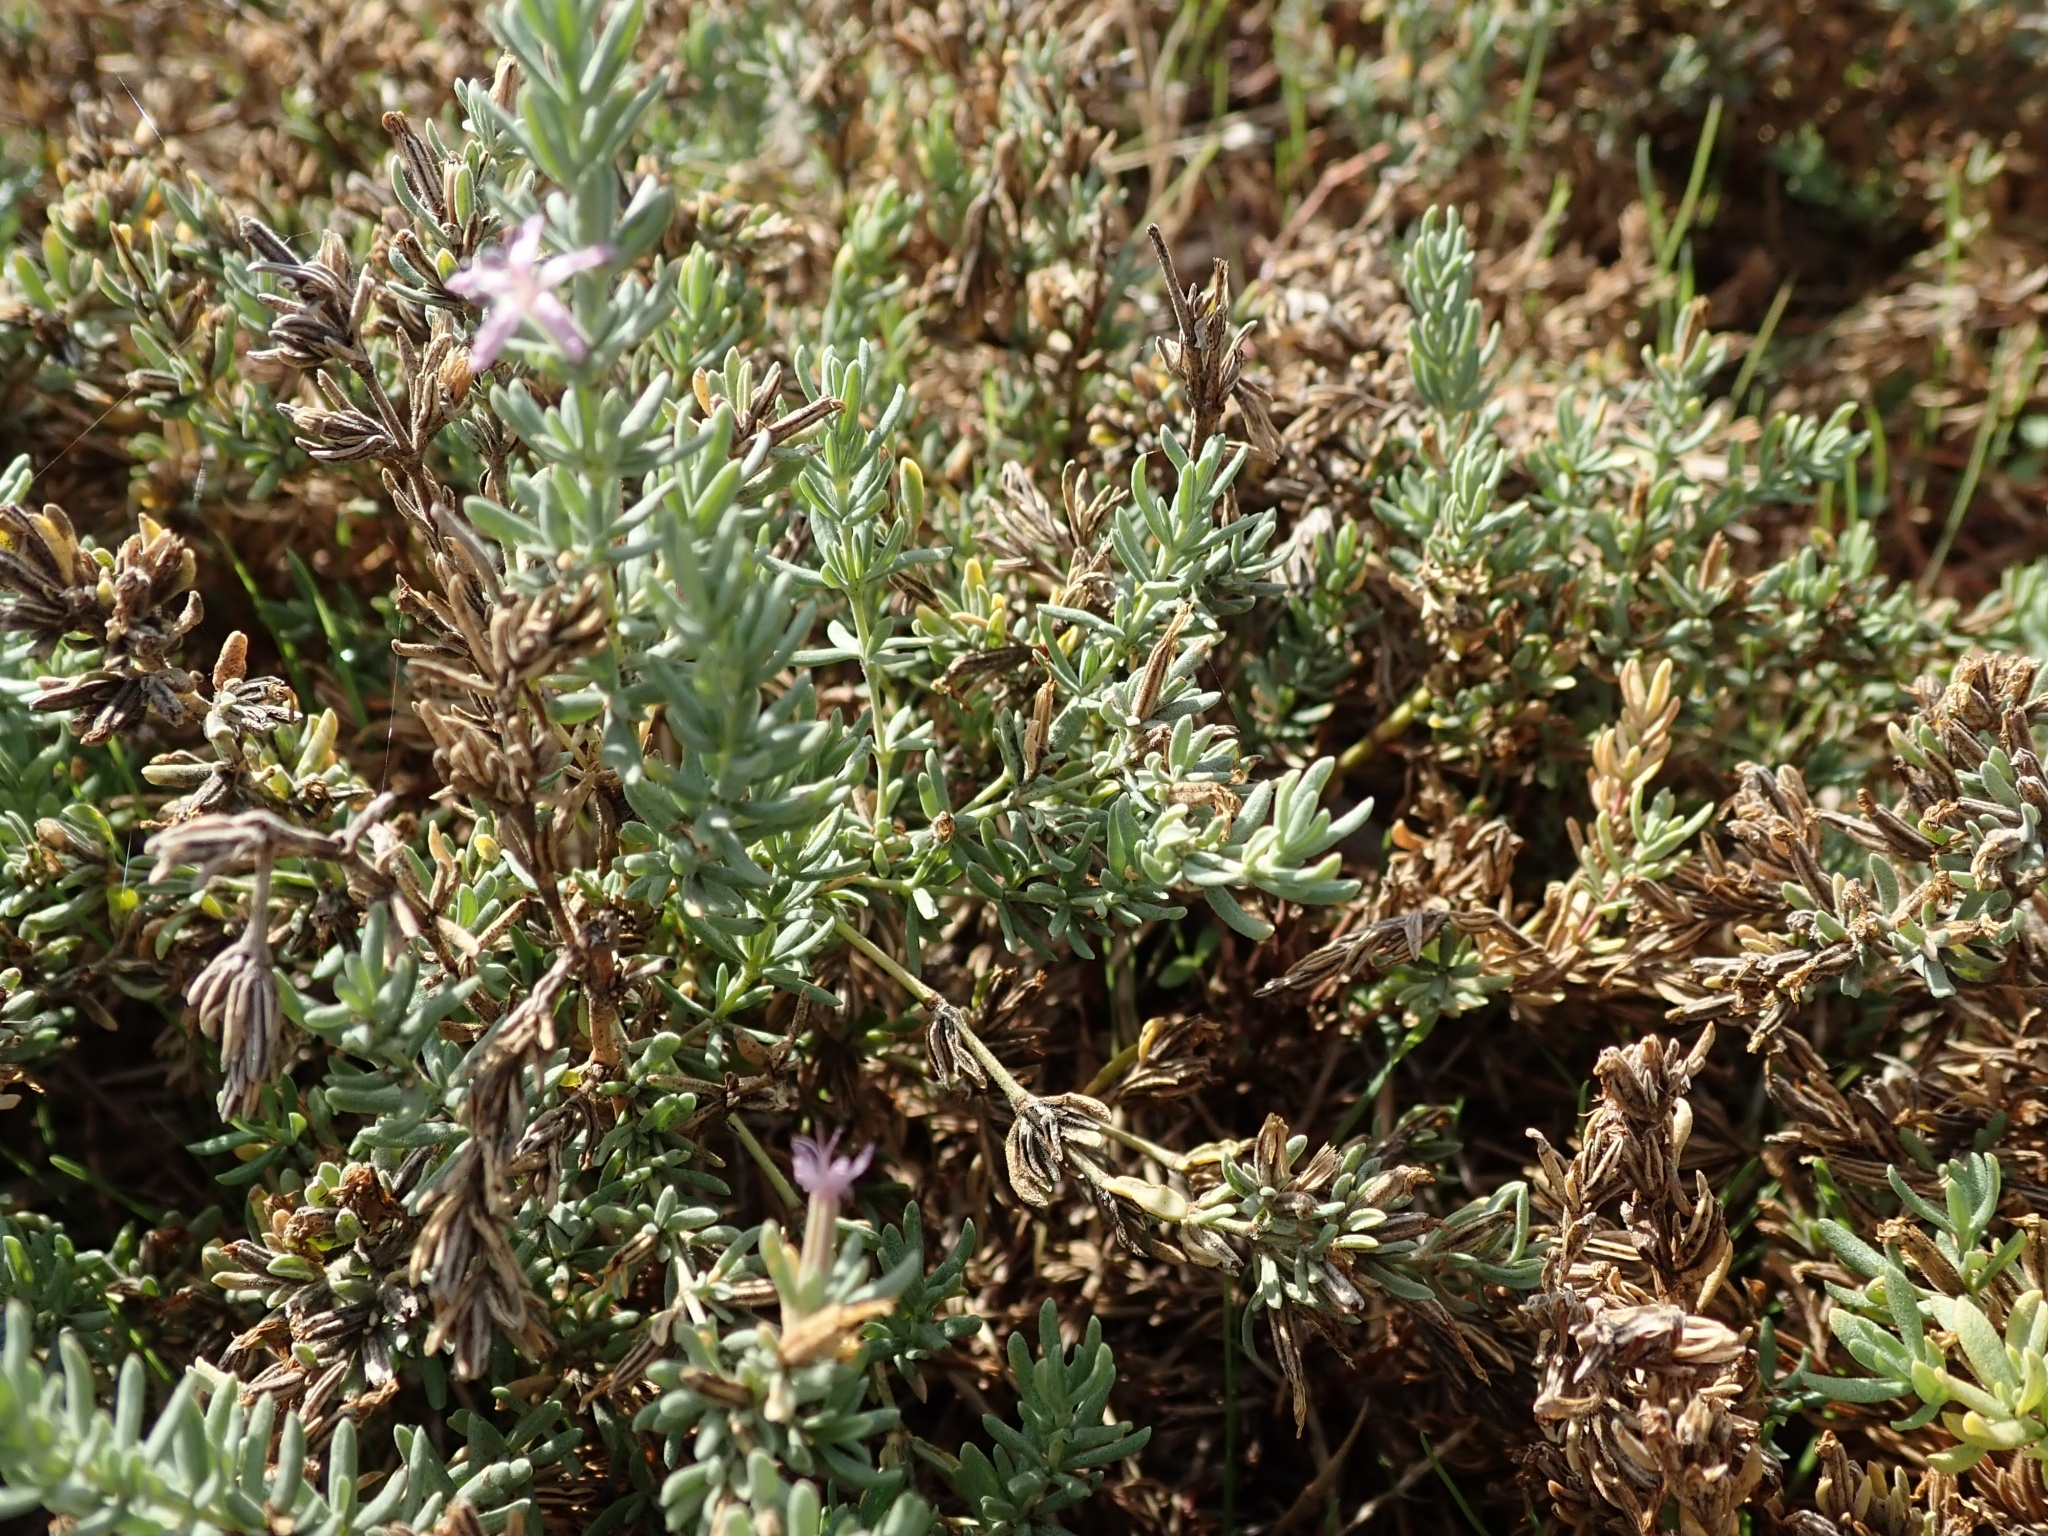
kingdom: Plantae
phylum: Tracheophyta
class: Magnoliopsida
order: Caryophyllales
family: Frankeniaceae
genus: Frankenia
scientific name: Frankenia salina
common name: Alkali seaheath
